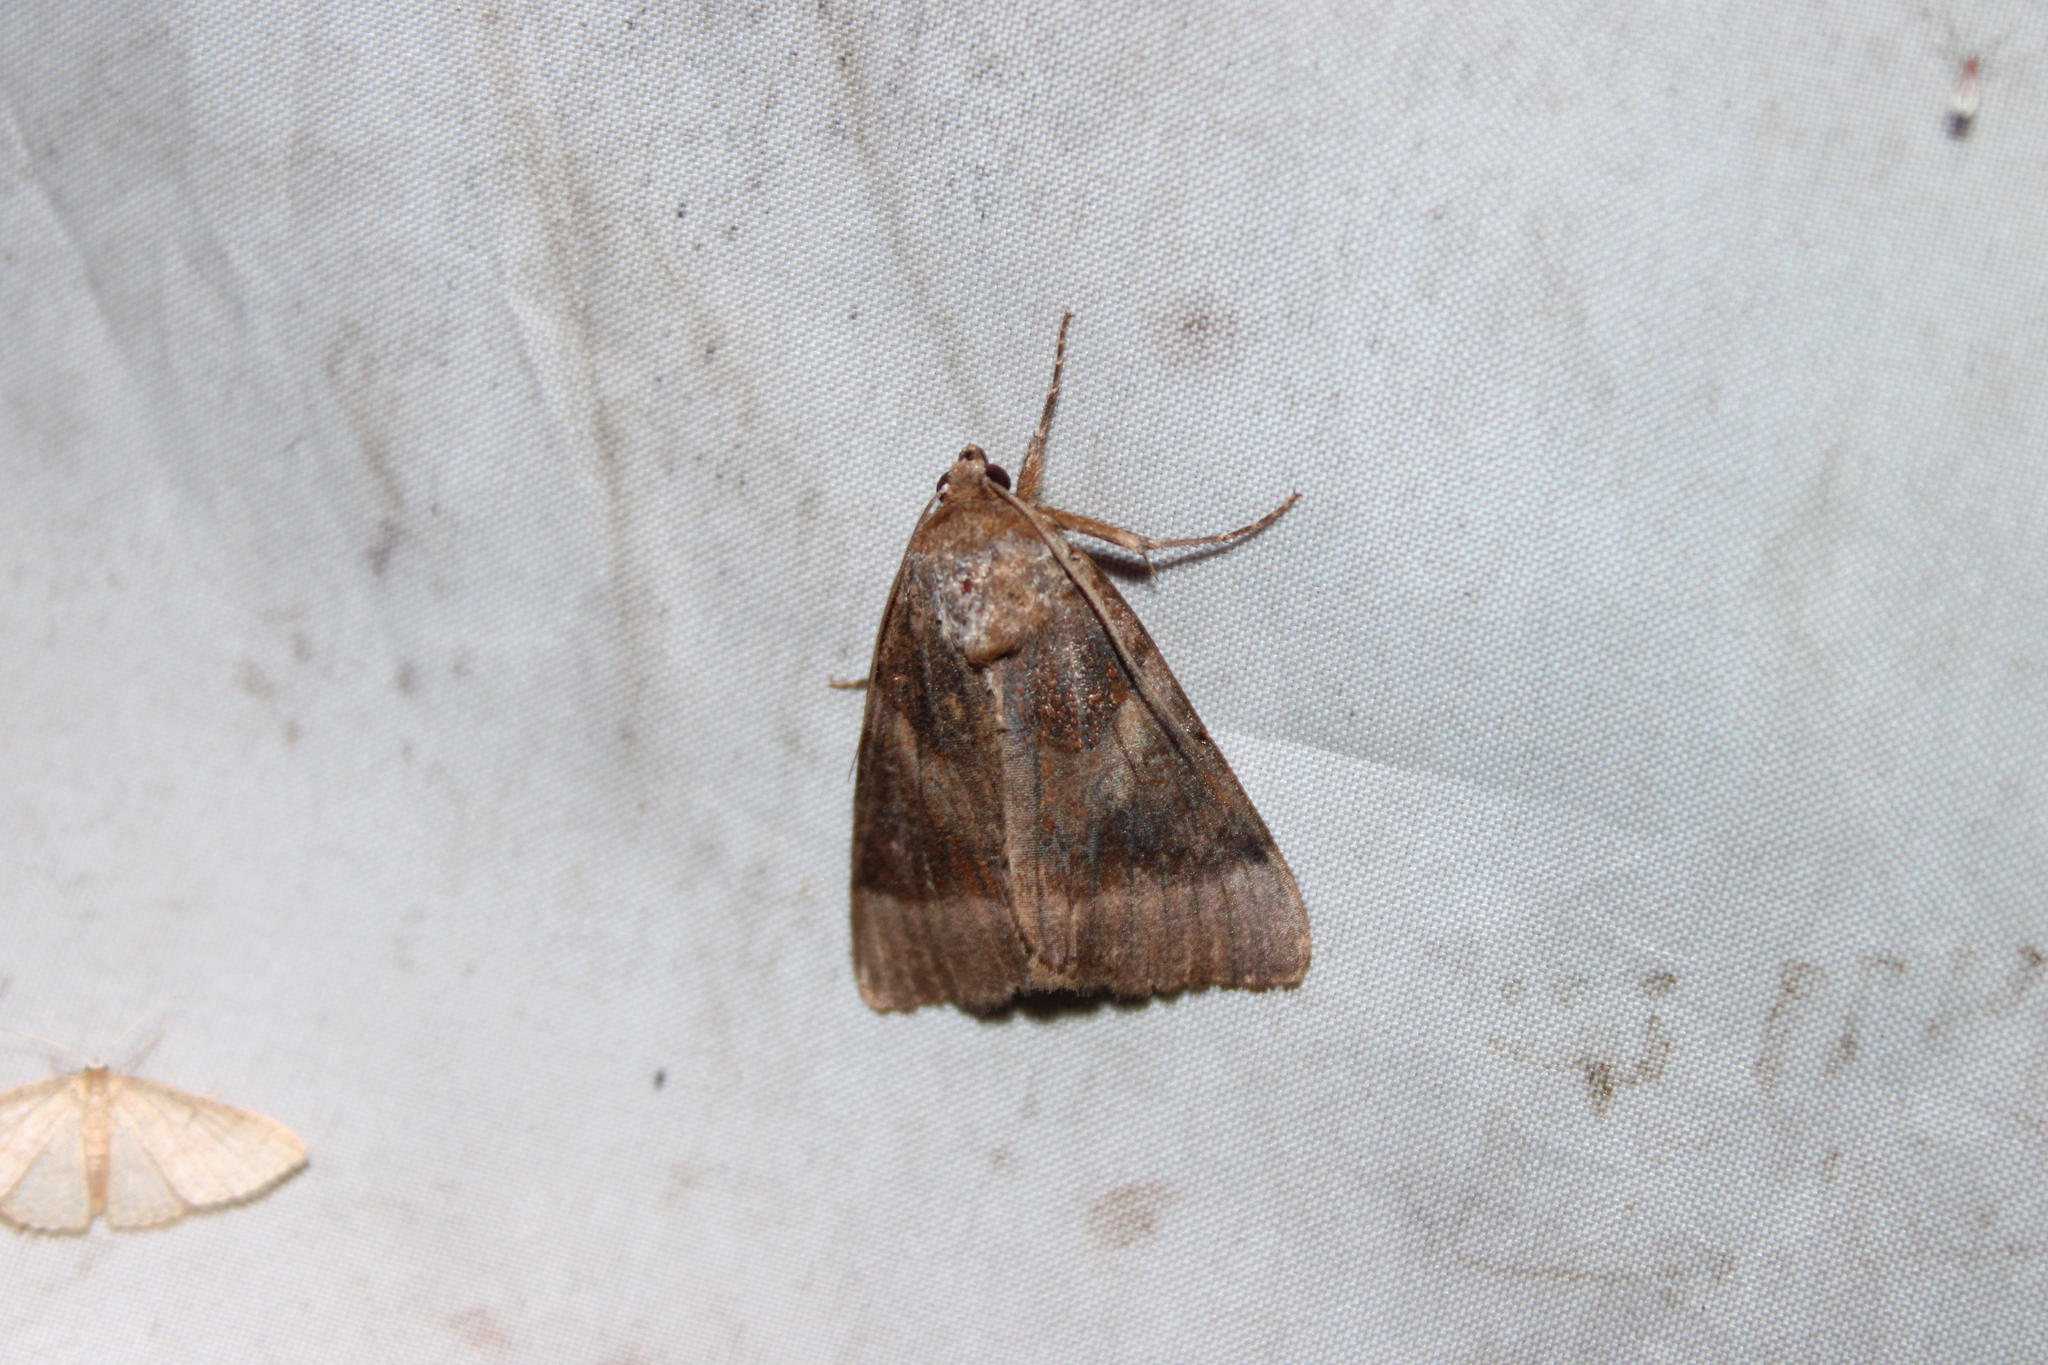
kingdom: Animalia
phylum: Arthropoda
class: Insecta
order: Lepidoptera
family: Erebidae
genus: Catocala
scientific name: Catocala badia
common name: Bay underwing
